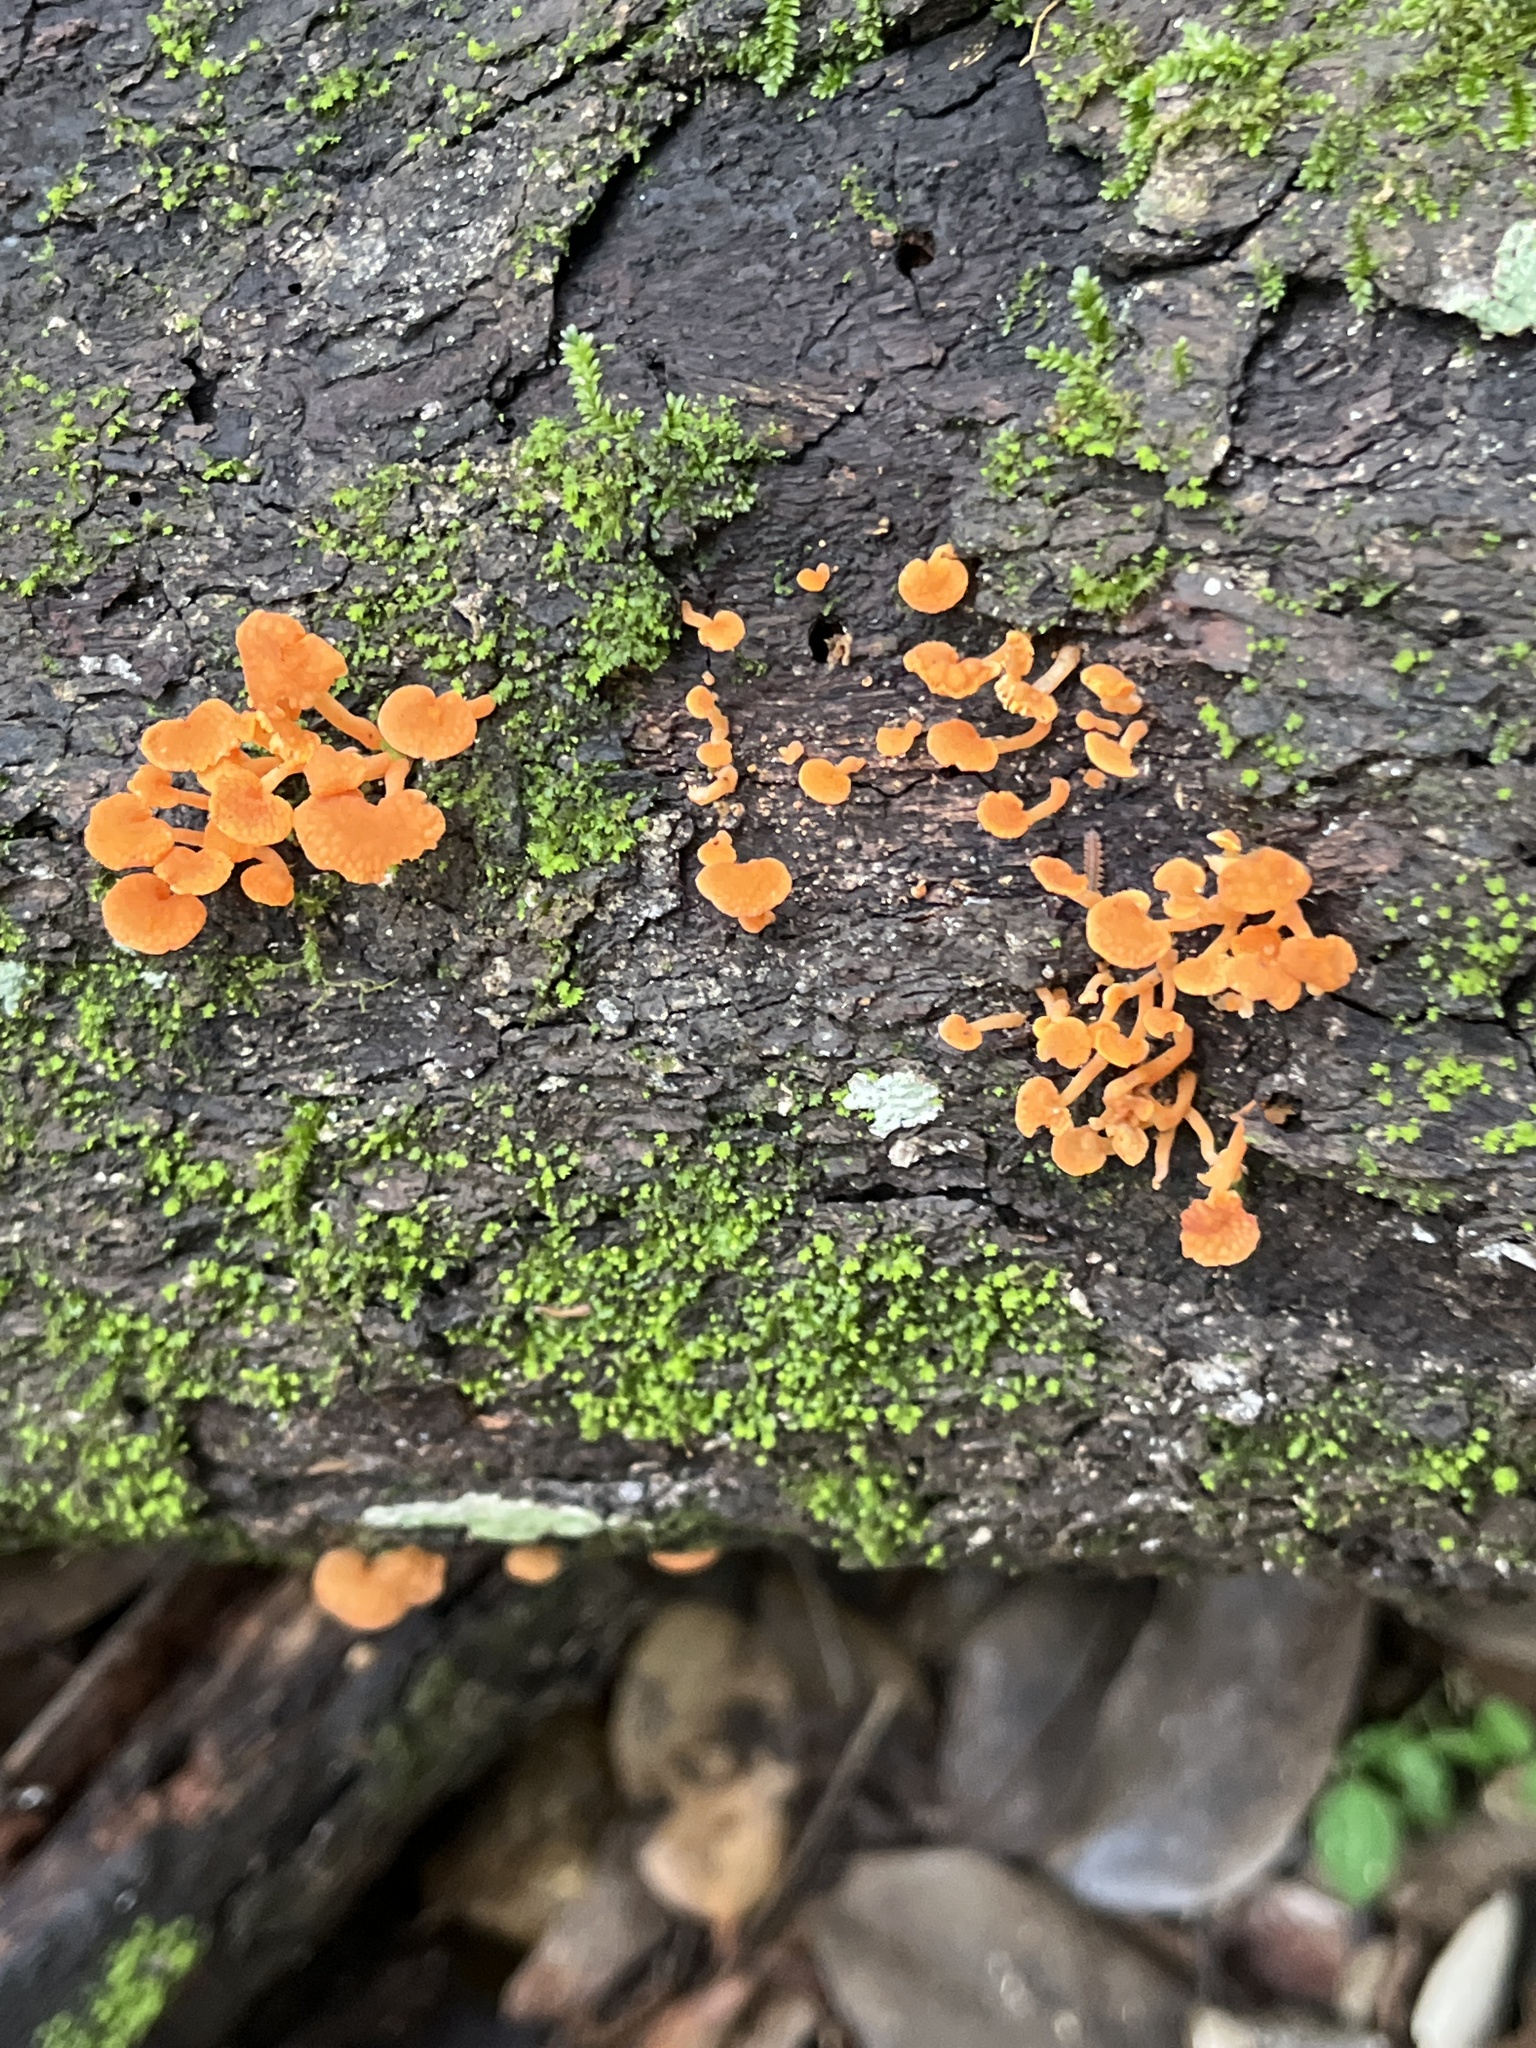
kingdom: Fungi
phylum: Basidiomycota
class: Agaricomycetes
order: Agaricales
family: Mycenaceae
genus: Favolaschia
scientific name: Favolaschia calocera
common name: Orange ping-pong bat
